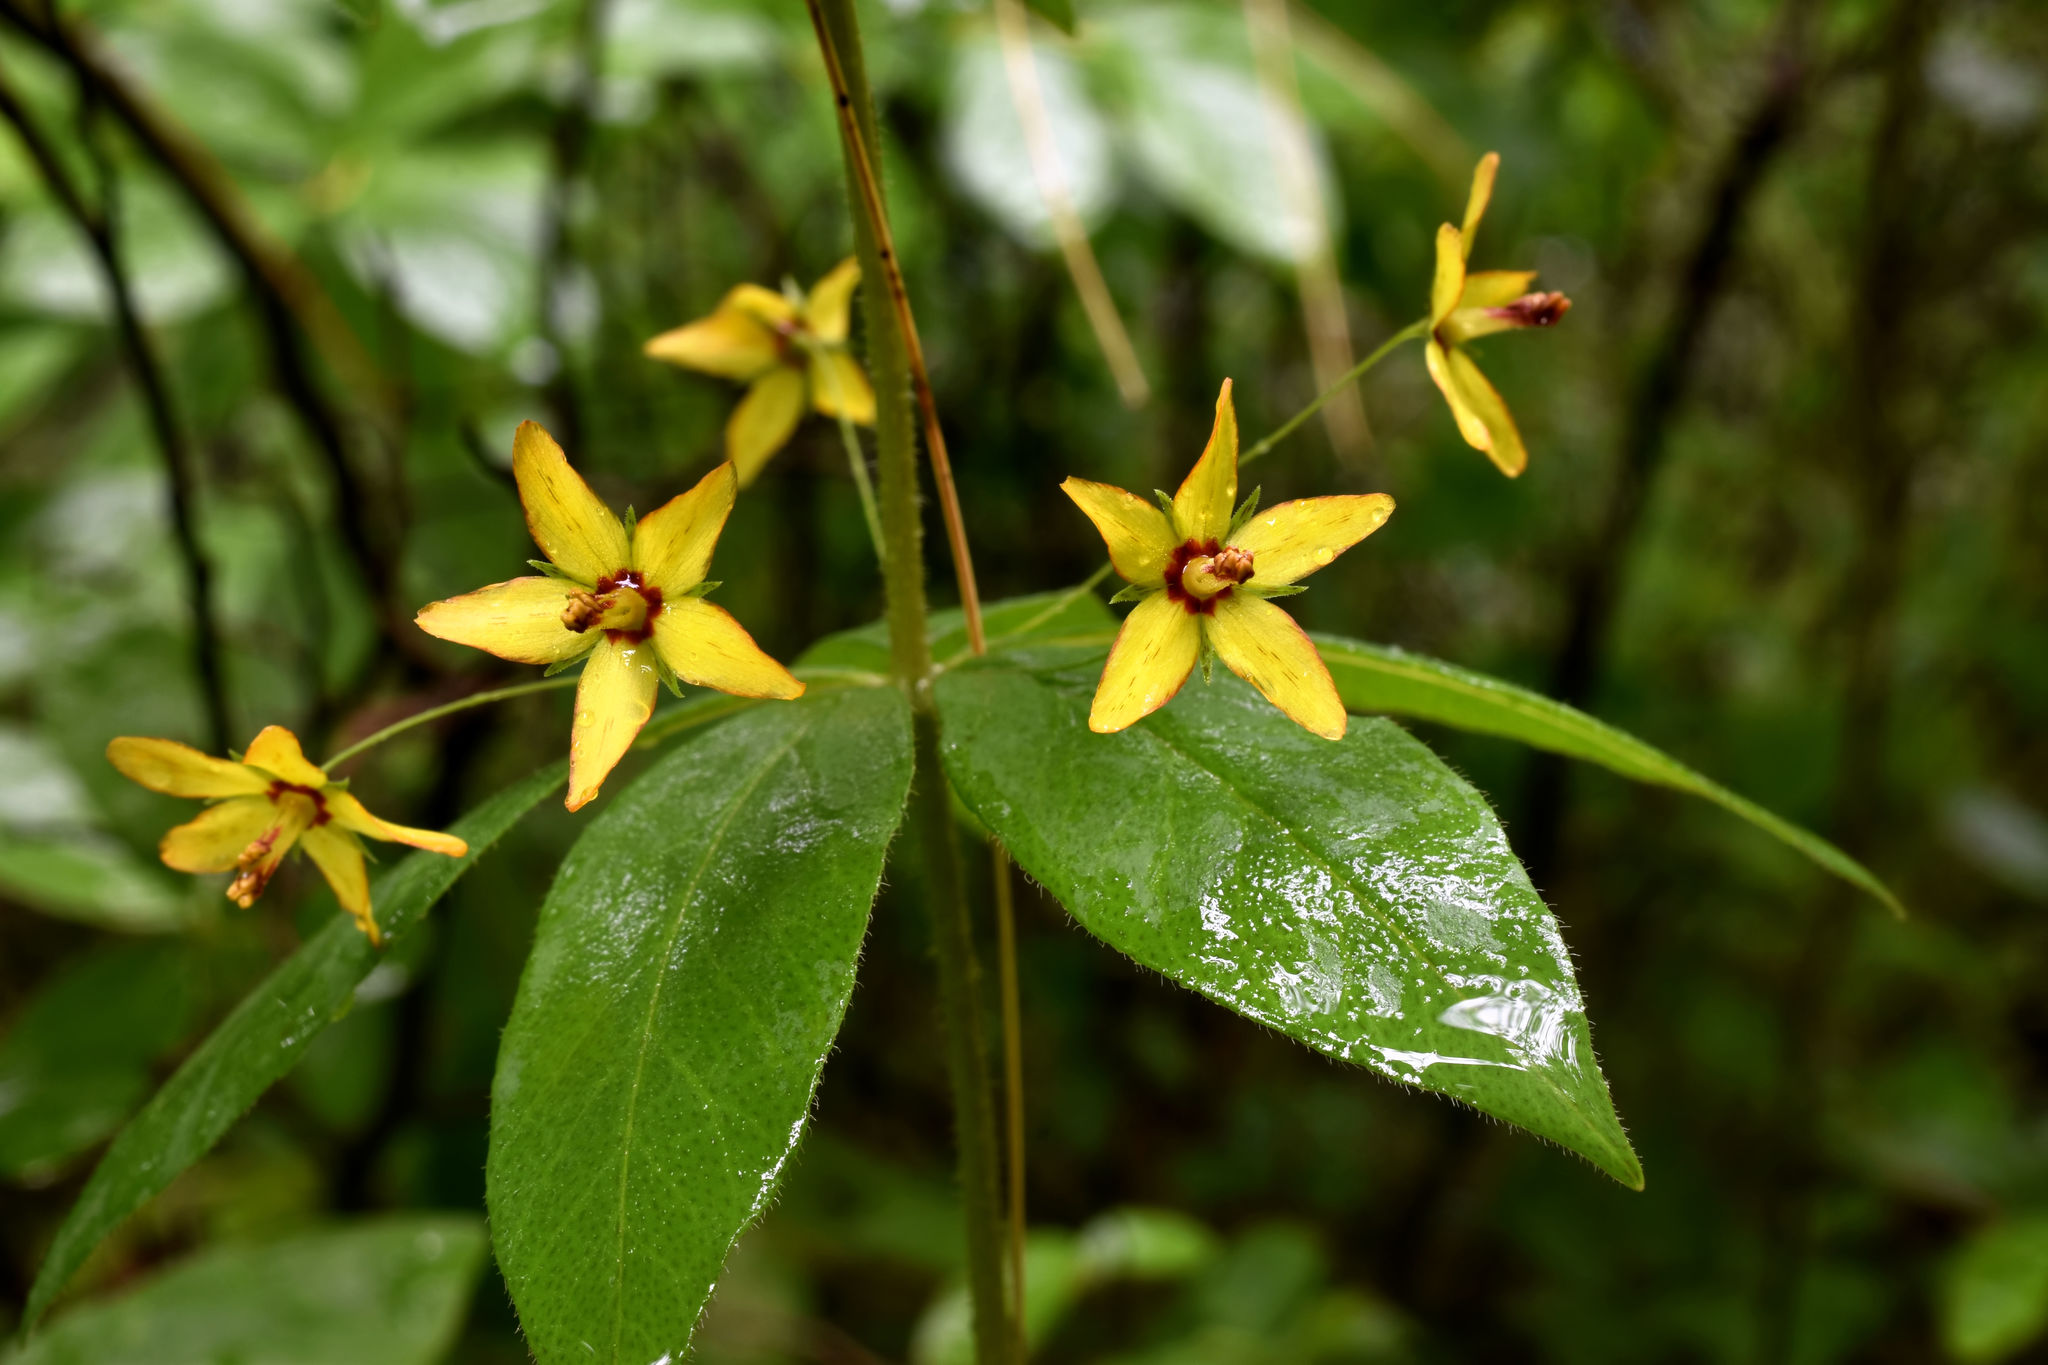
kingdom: Plantae
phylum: Tracheophyta
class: Magnoliopsida
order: Ericales
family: Primulaceae
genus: Lysimachia
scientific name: Lysimachia quadrifolia
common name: Whorled loosestrife
